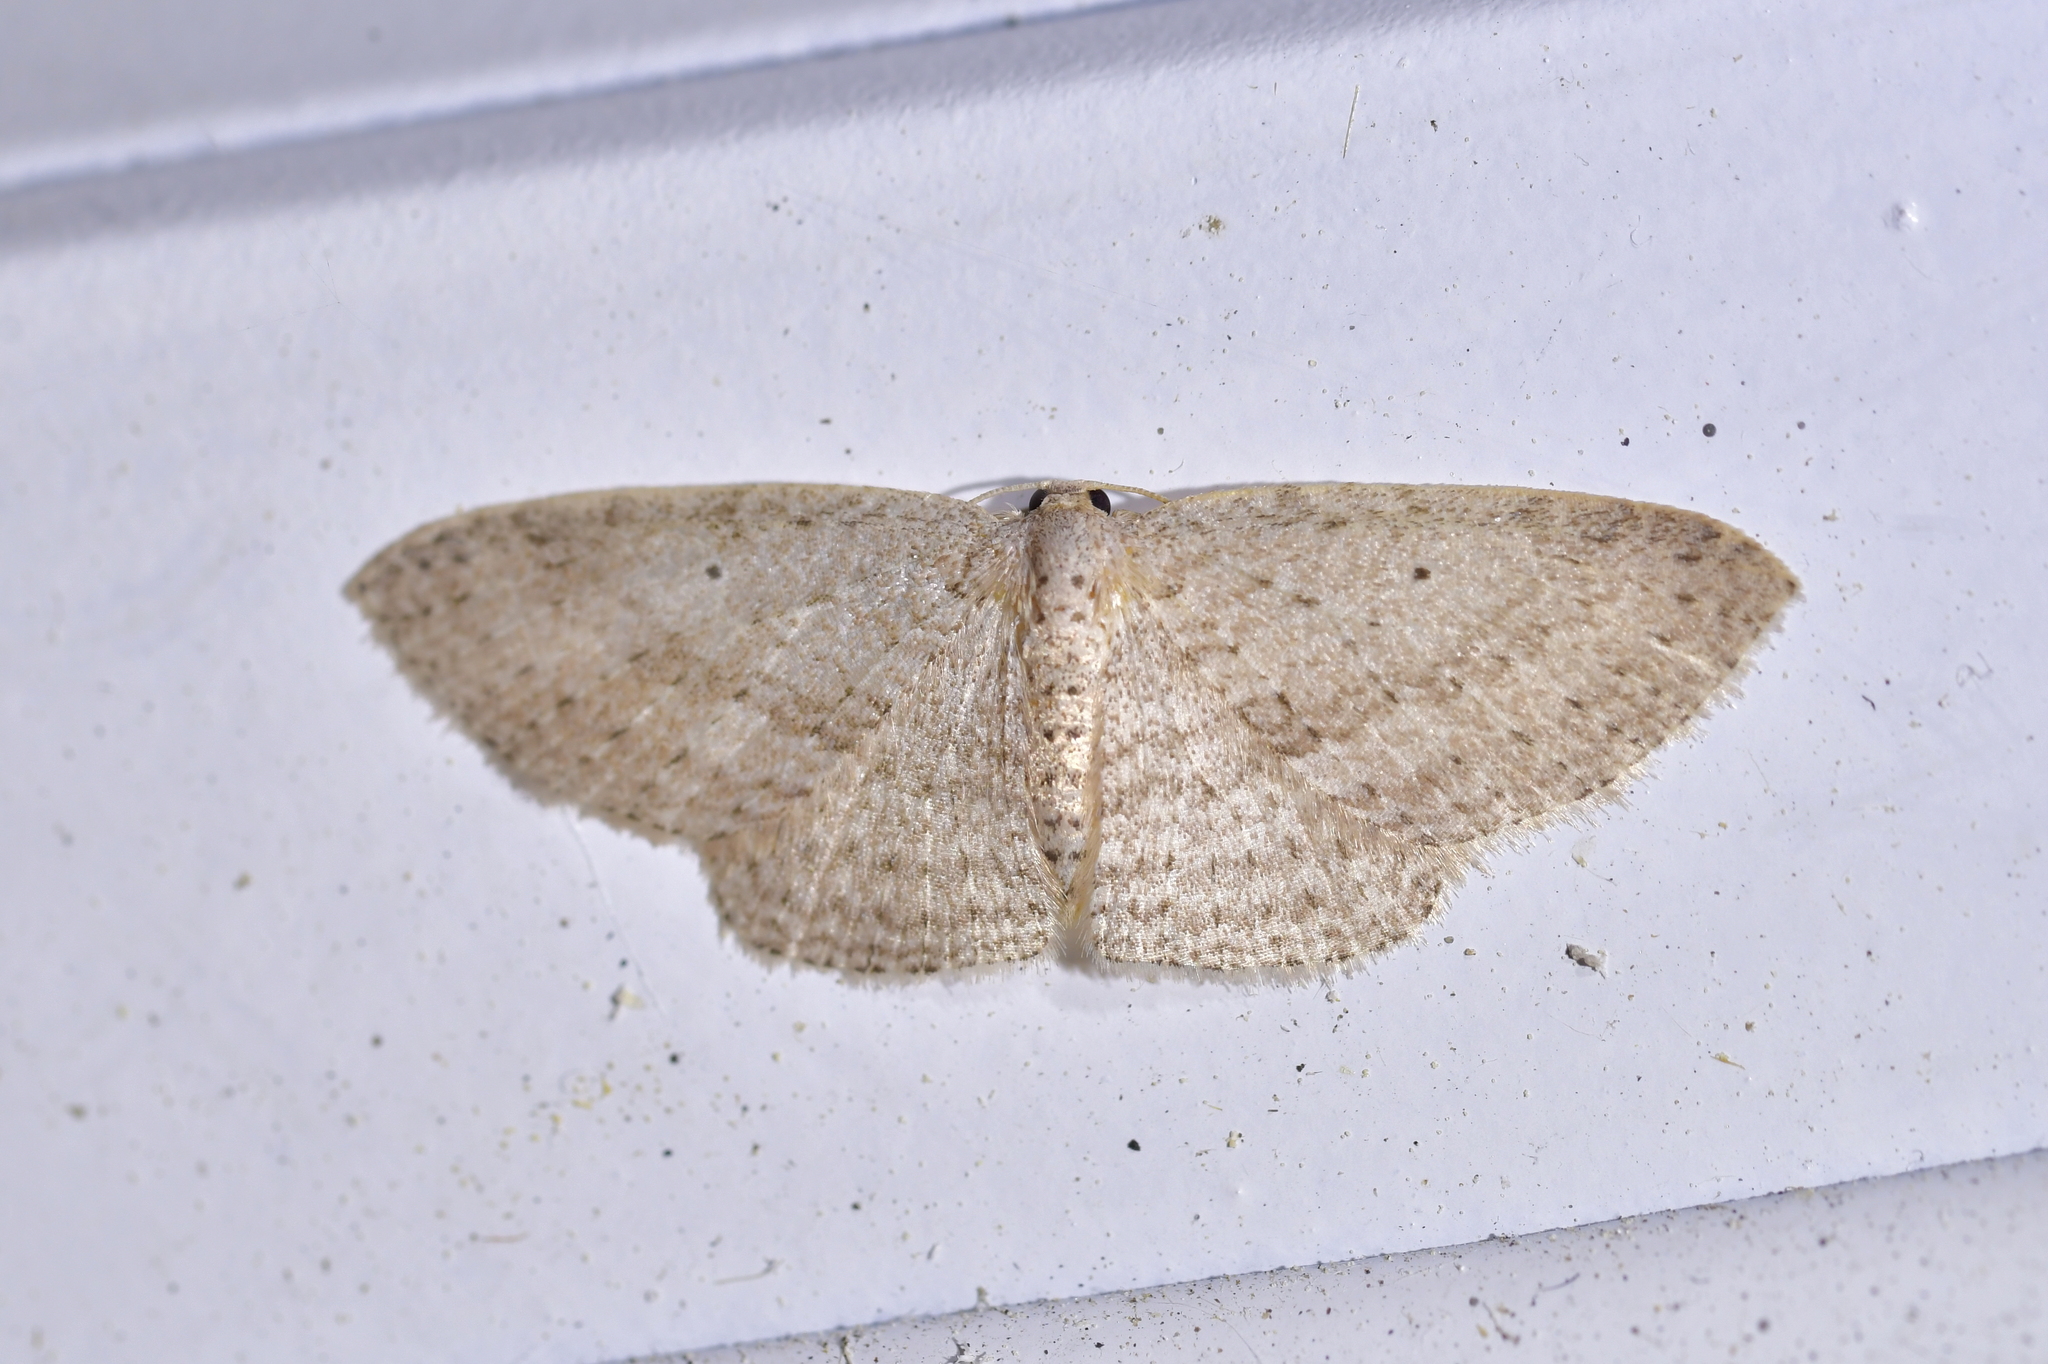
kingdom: Animalia
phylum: Arthropoda
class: Insecta
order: Lepidoptera
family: Geometridae
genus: Poecilasthena
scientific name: Poecilasthena schistaria
